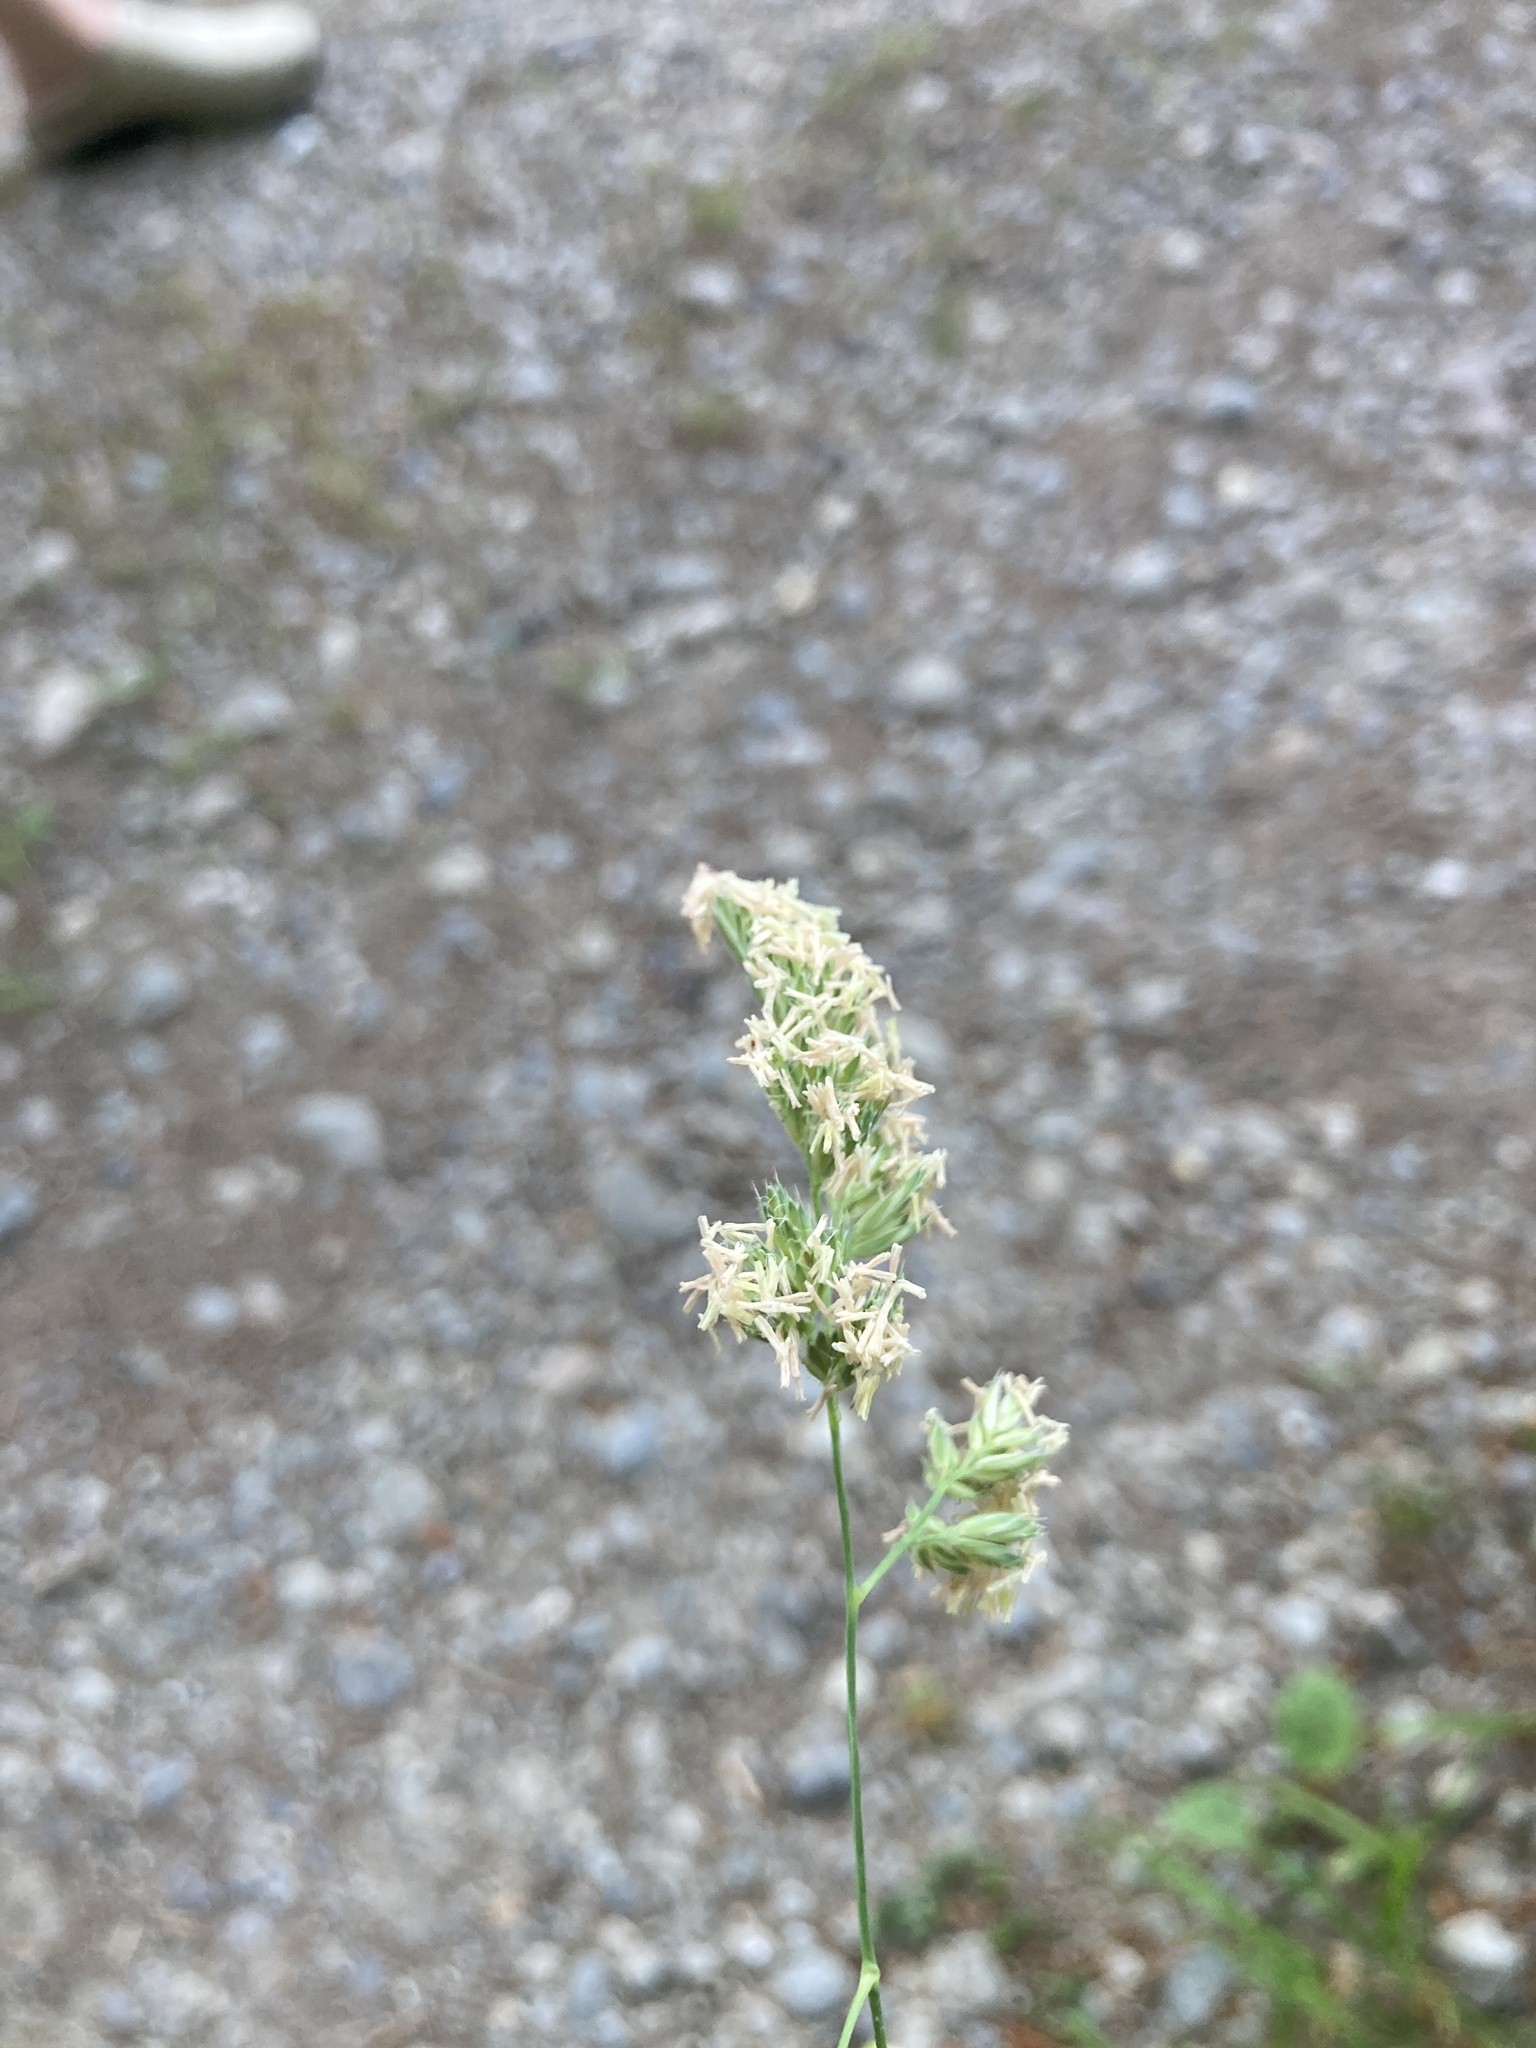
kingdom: Plantae
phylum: Tracheophyta
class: Liliopsida
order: Poales
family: Poaceae
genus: Dactylis
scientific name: Dactylis glomerata
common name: Orchardgrass
